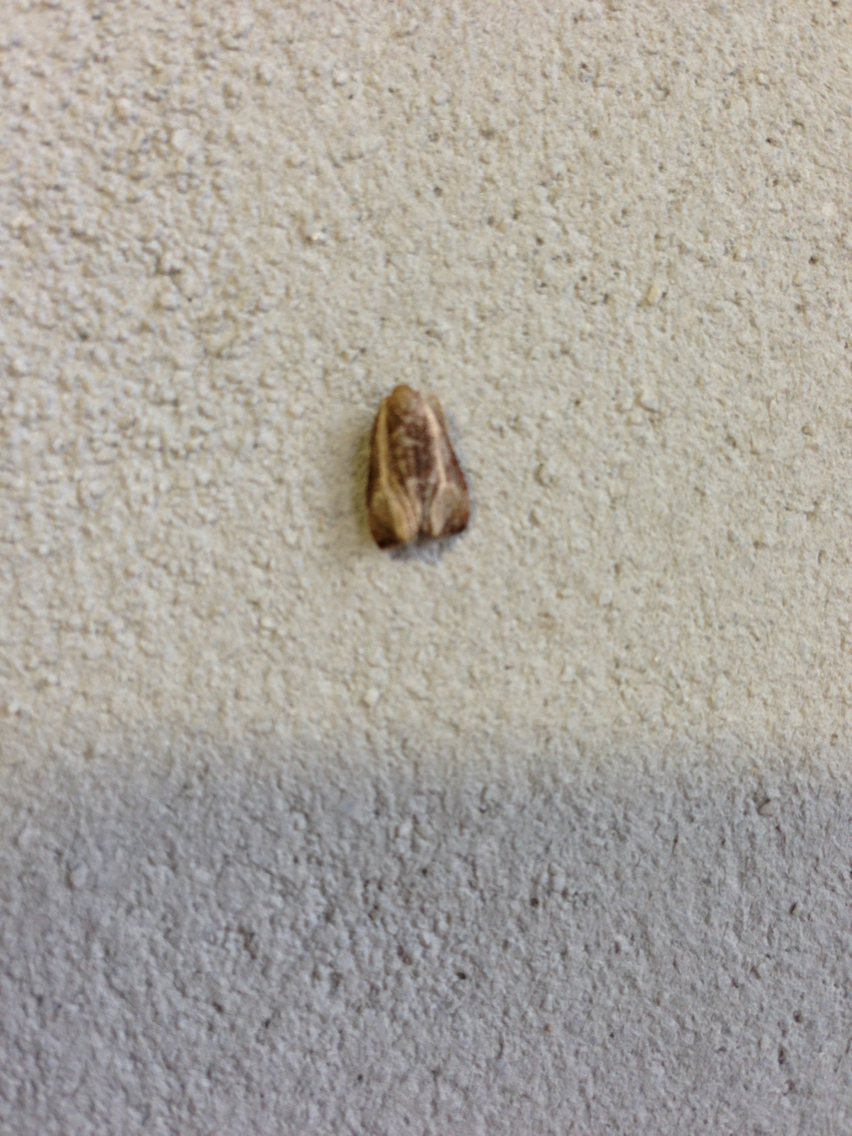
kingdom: Animalia
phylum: Arthropoda
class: Insecta
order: Lepidoptera
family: Tortricidae
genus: Olethreutes
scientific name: Olethreutes quadrifidum
